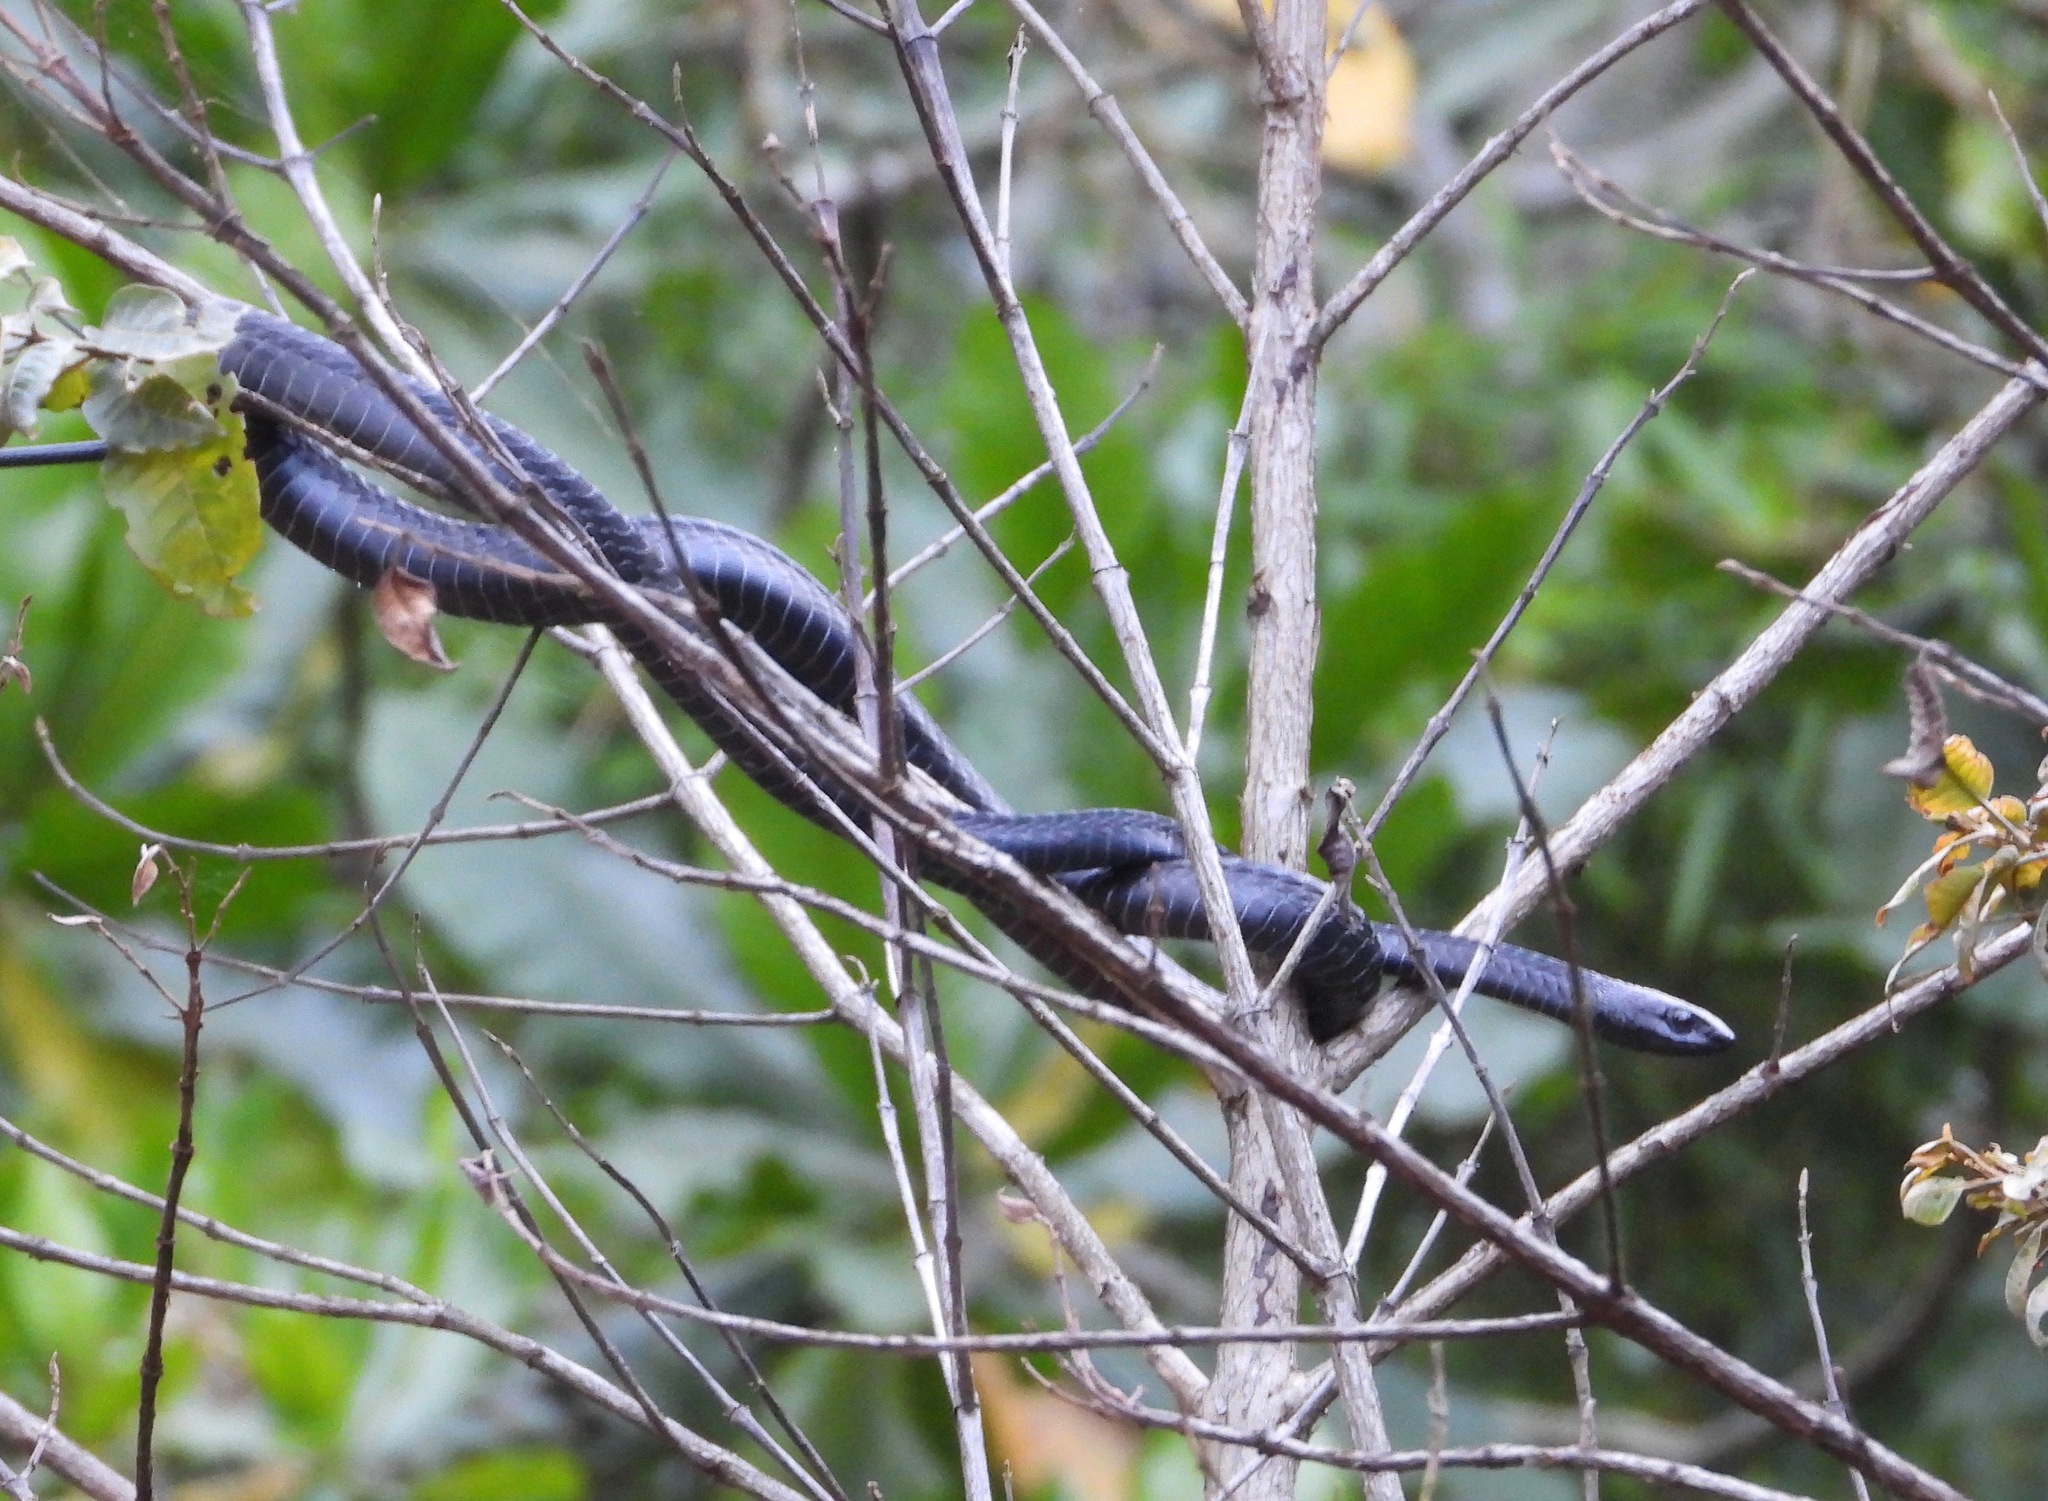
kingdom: Animalia
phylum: Chordata
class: Squamata
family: Colubridae
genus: Dispholidus
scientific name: Dispholidus typus
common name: Boomslang
